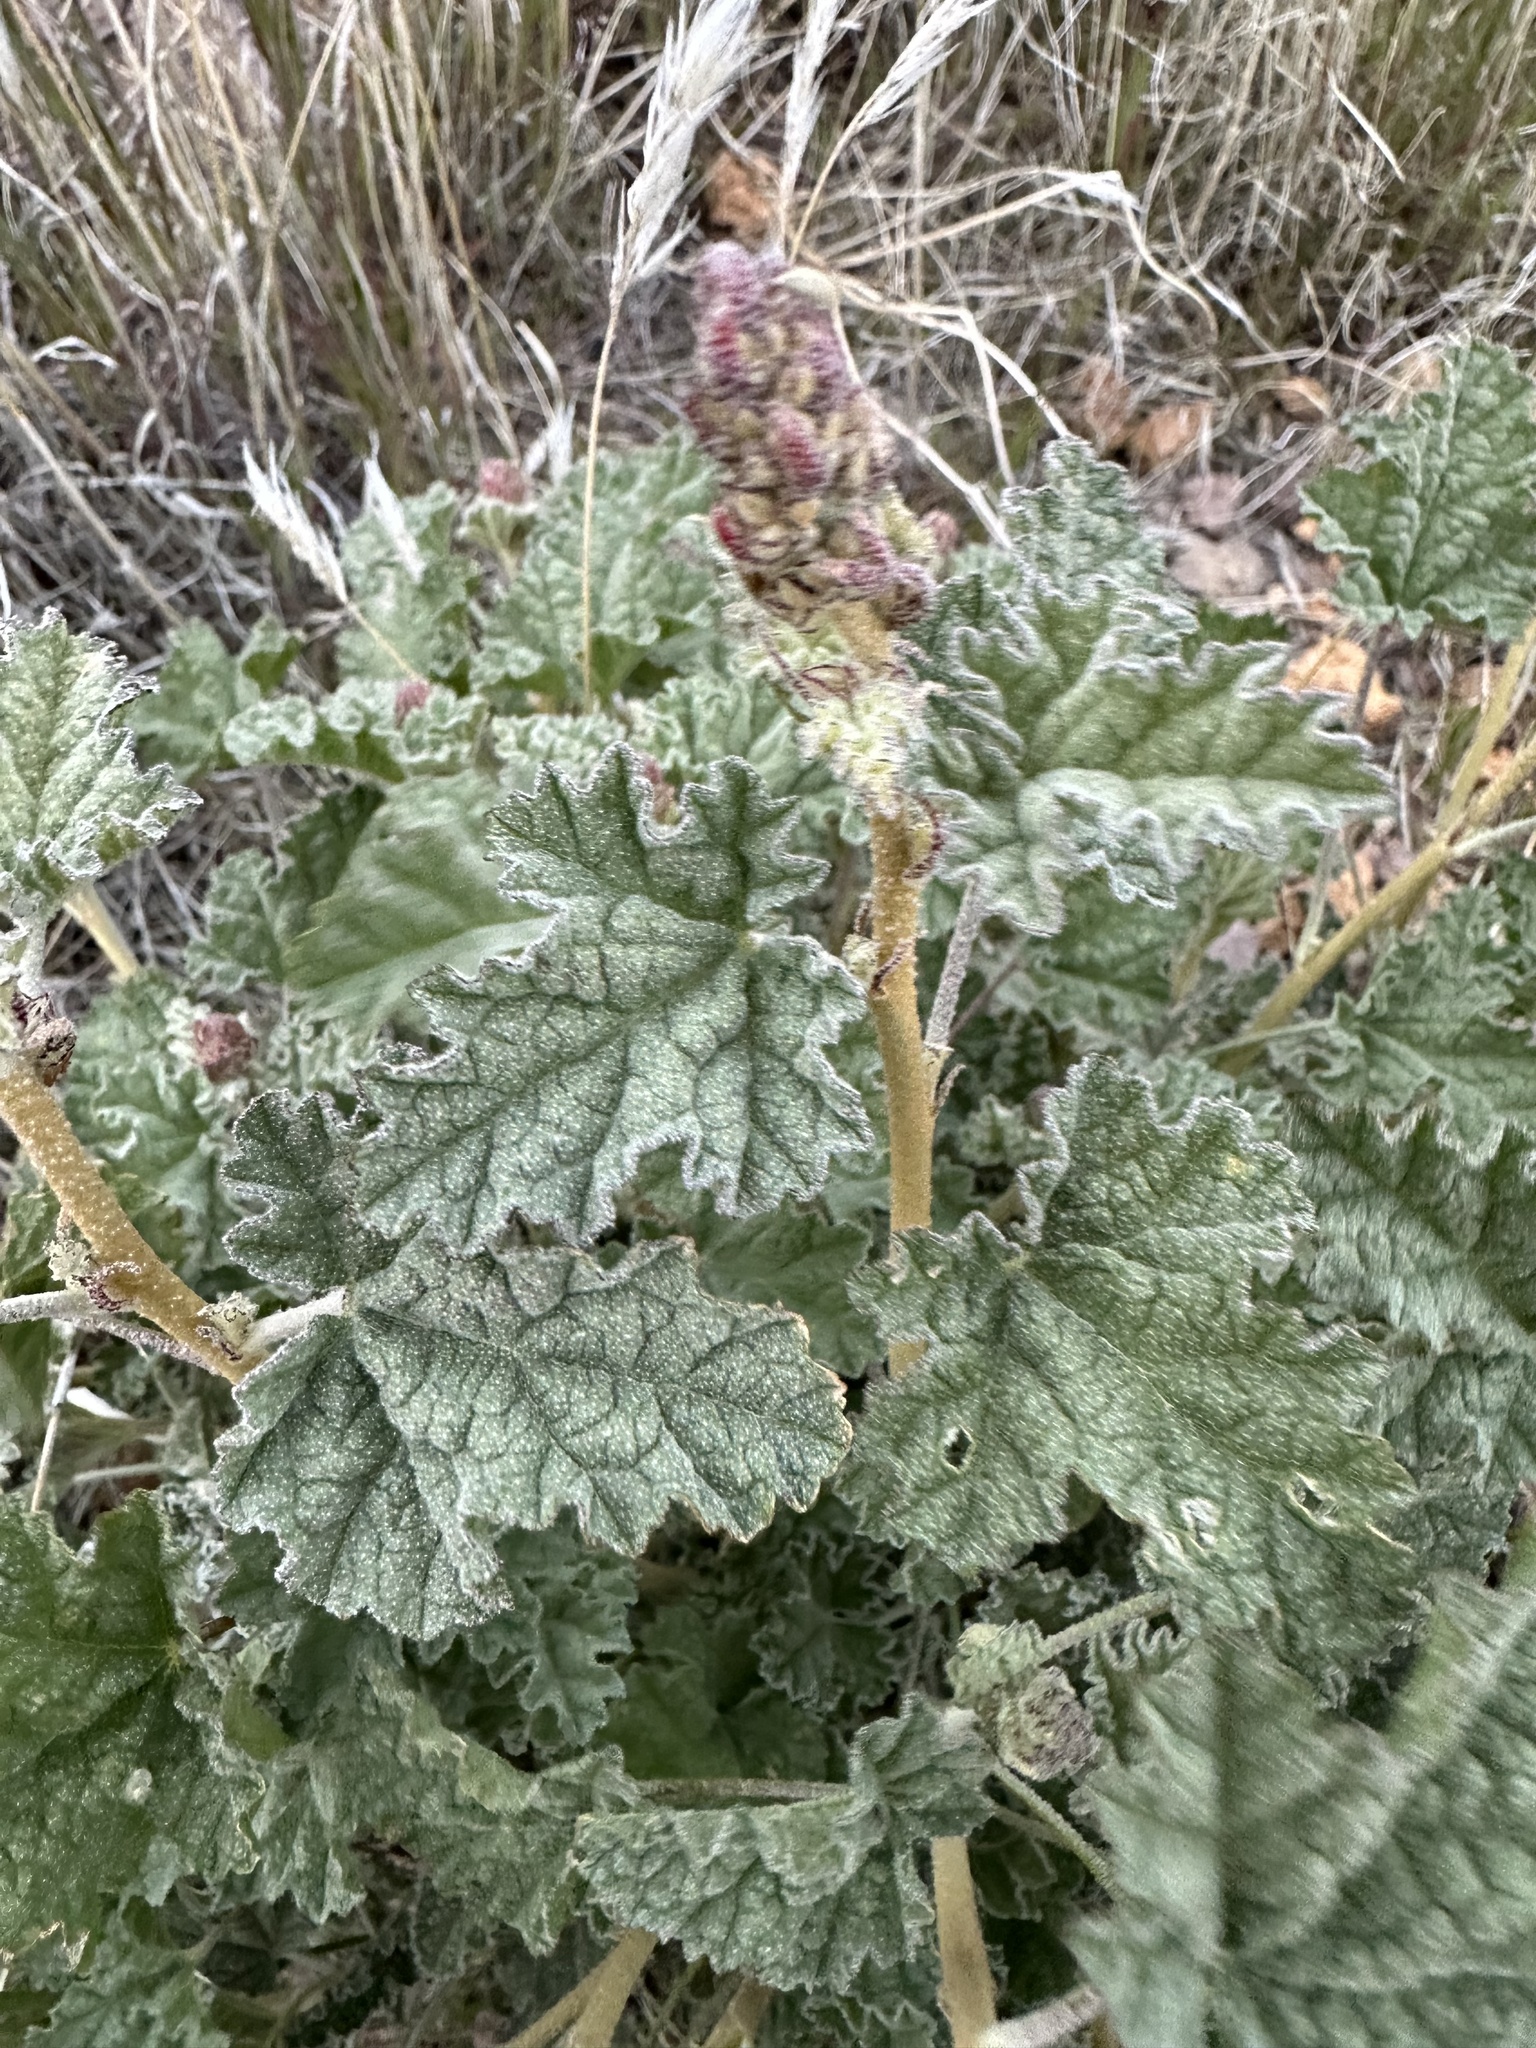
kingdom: Plantae
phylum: Tracheophyta
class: Magnoliopsida
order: Malvales
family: Malvaceae
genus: Sphaeralcea
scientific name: Sphaeralcea ambigua
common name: Apricot globe-mallow
